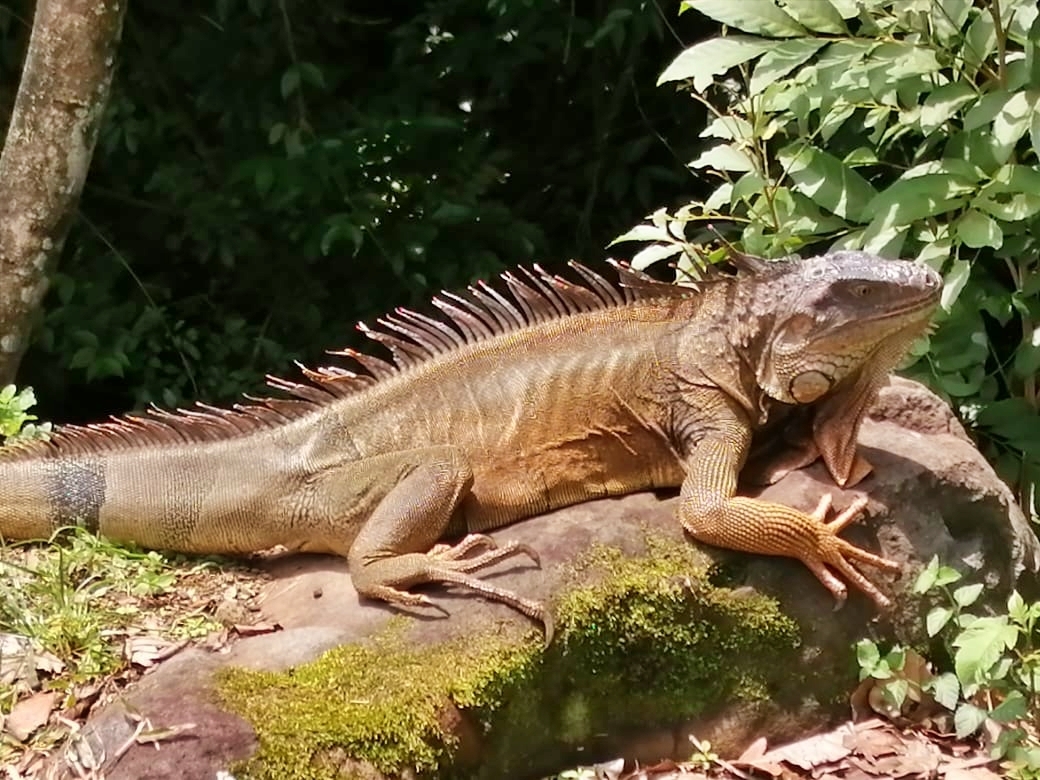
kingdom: Animalia
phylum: Chordata
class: Squamata
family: Iguanidae
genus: Iguana
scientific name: Iguana iguana
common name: Green iguana
